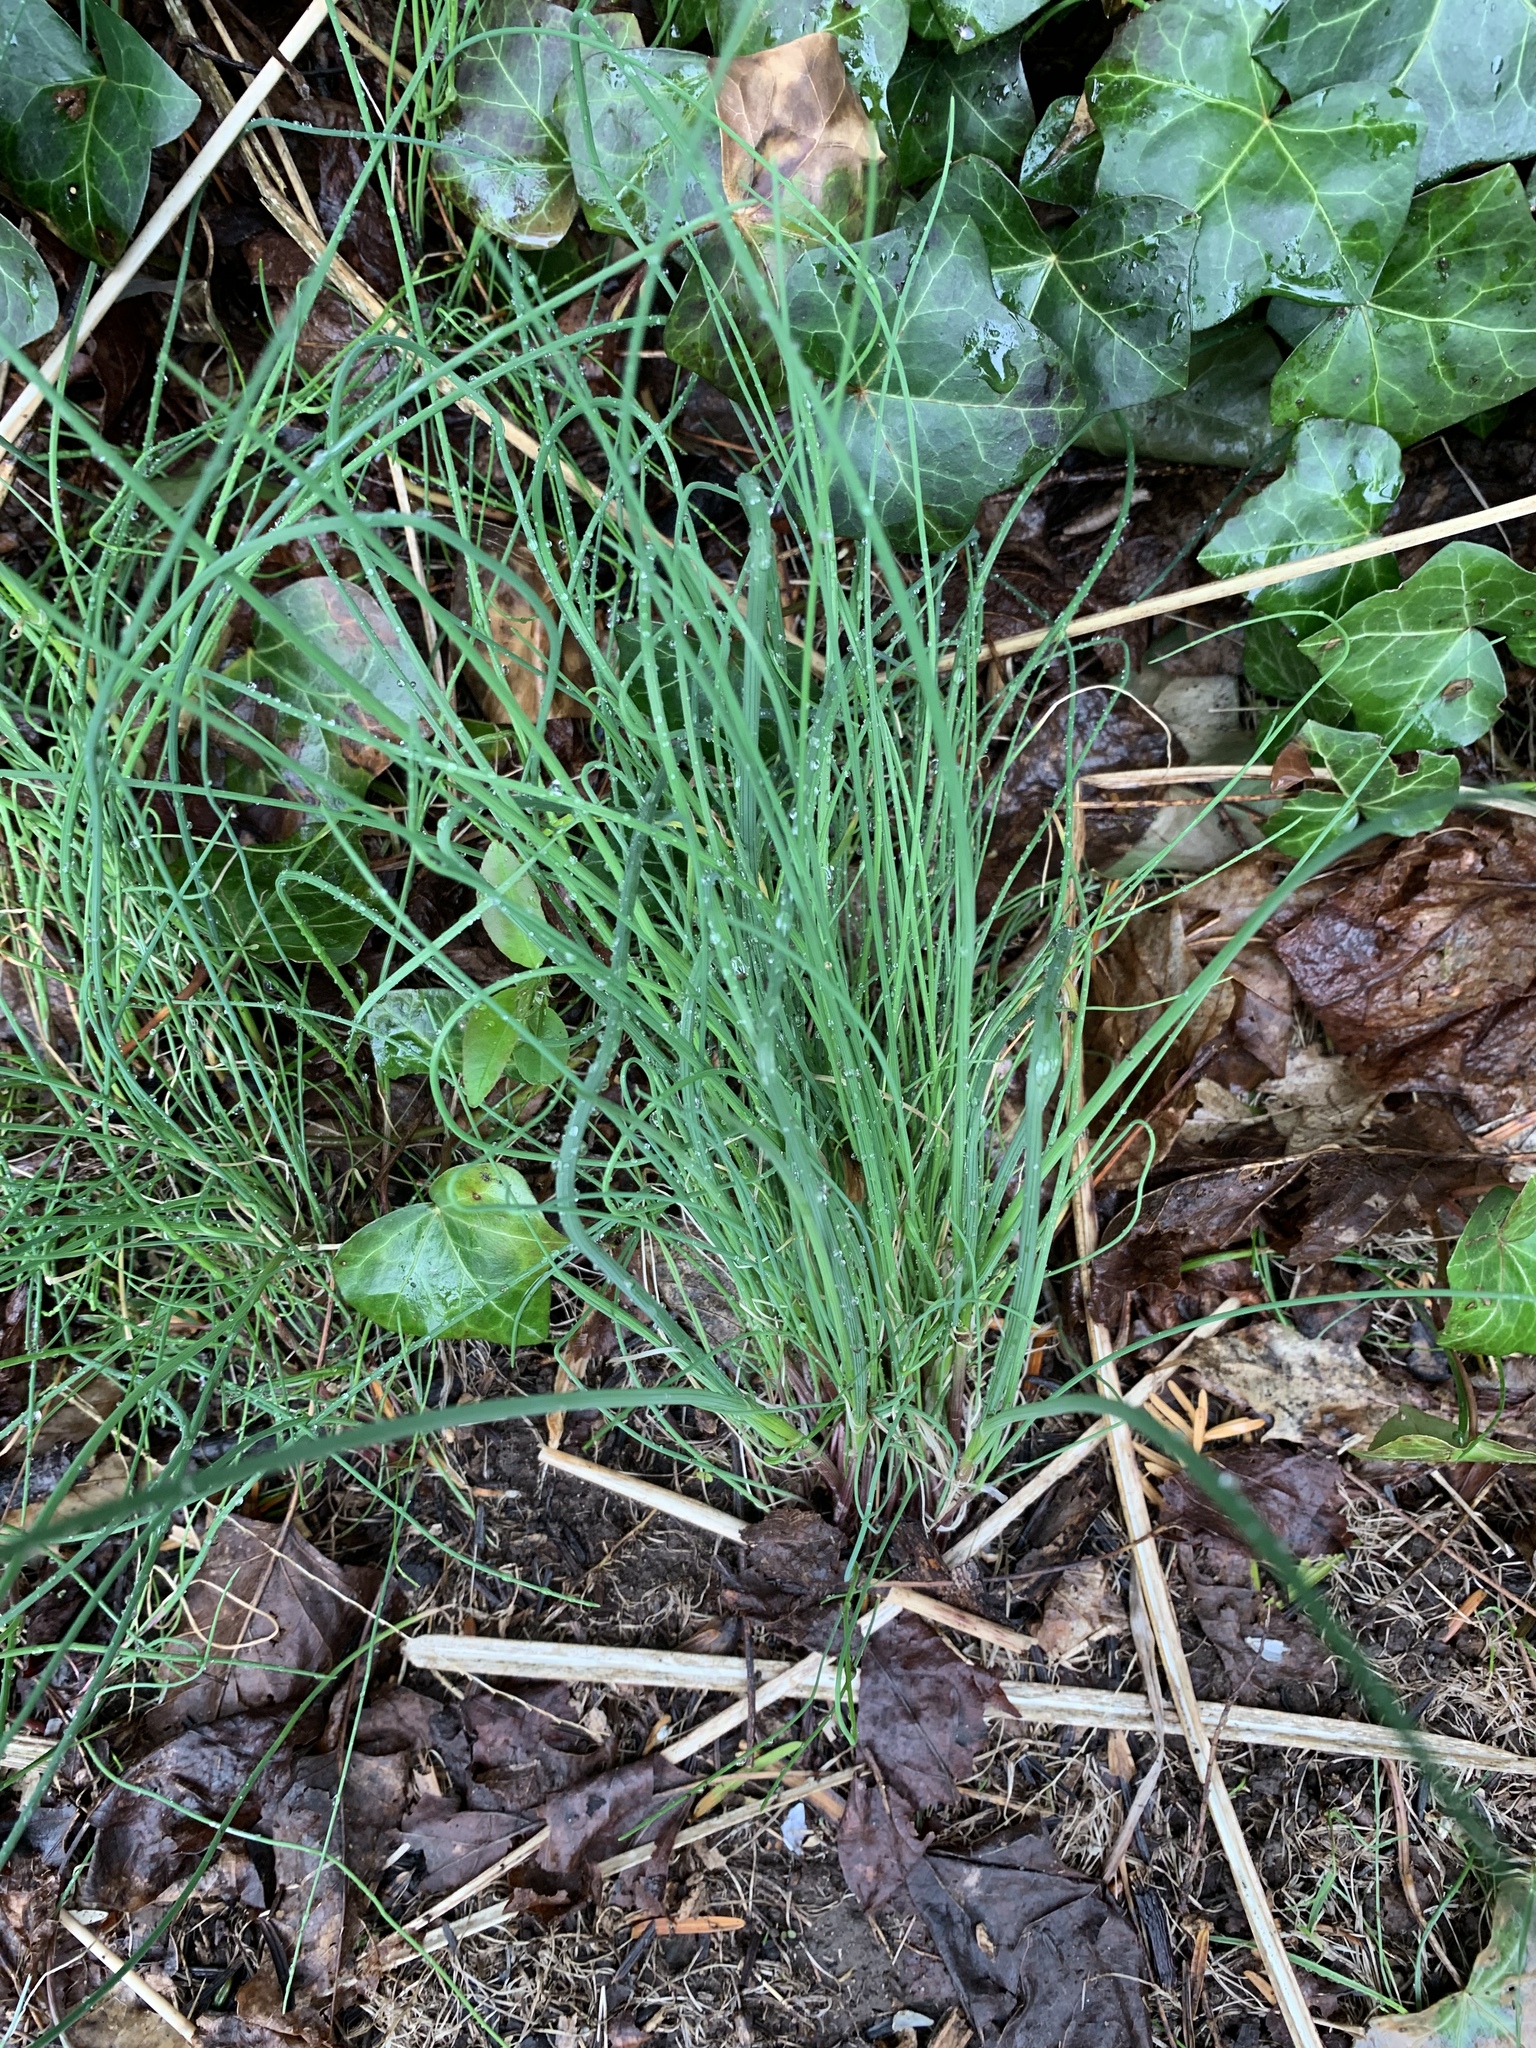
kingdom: Plantae
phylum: Tracheophyta
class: Liliopsida
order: Asparagales
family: Amaryllidaceae
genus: Allium
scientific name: Allium vineale
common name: Crow garlic
